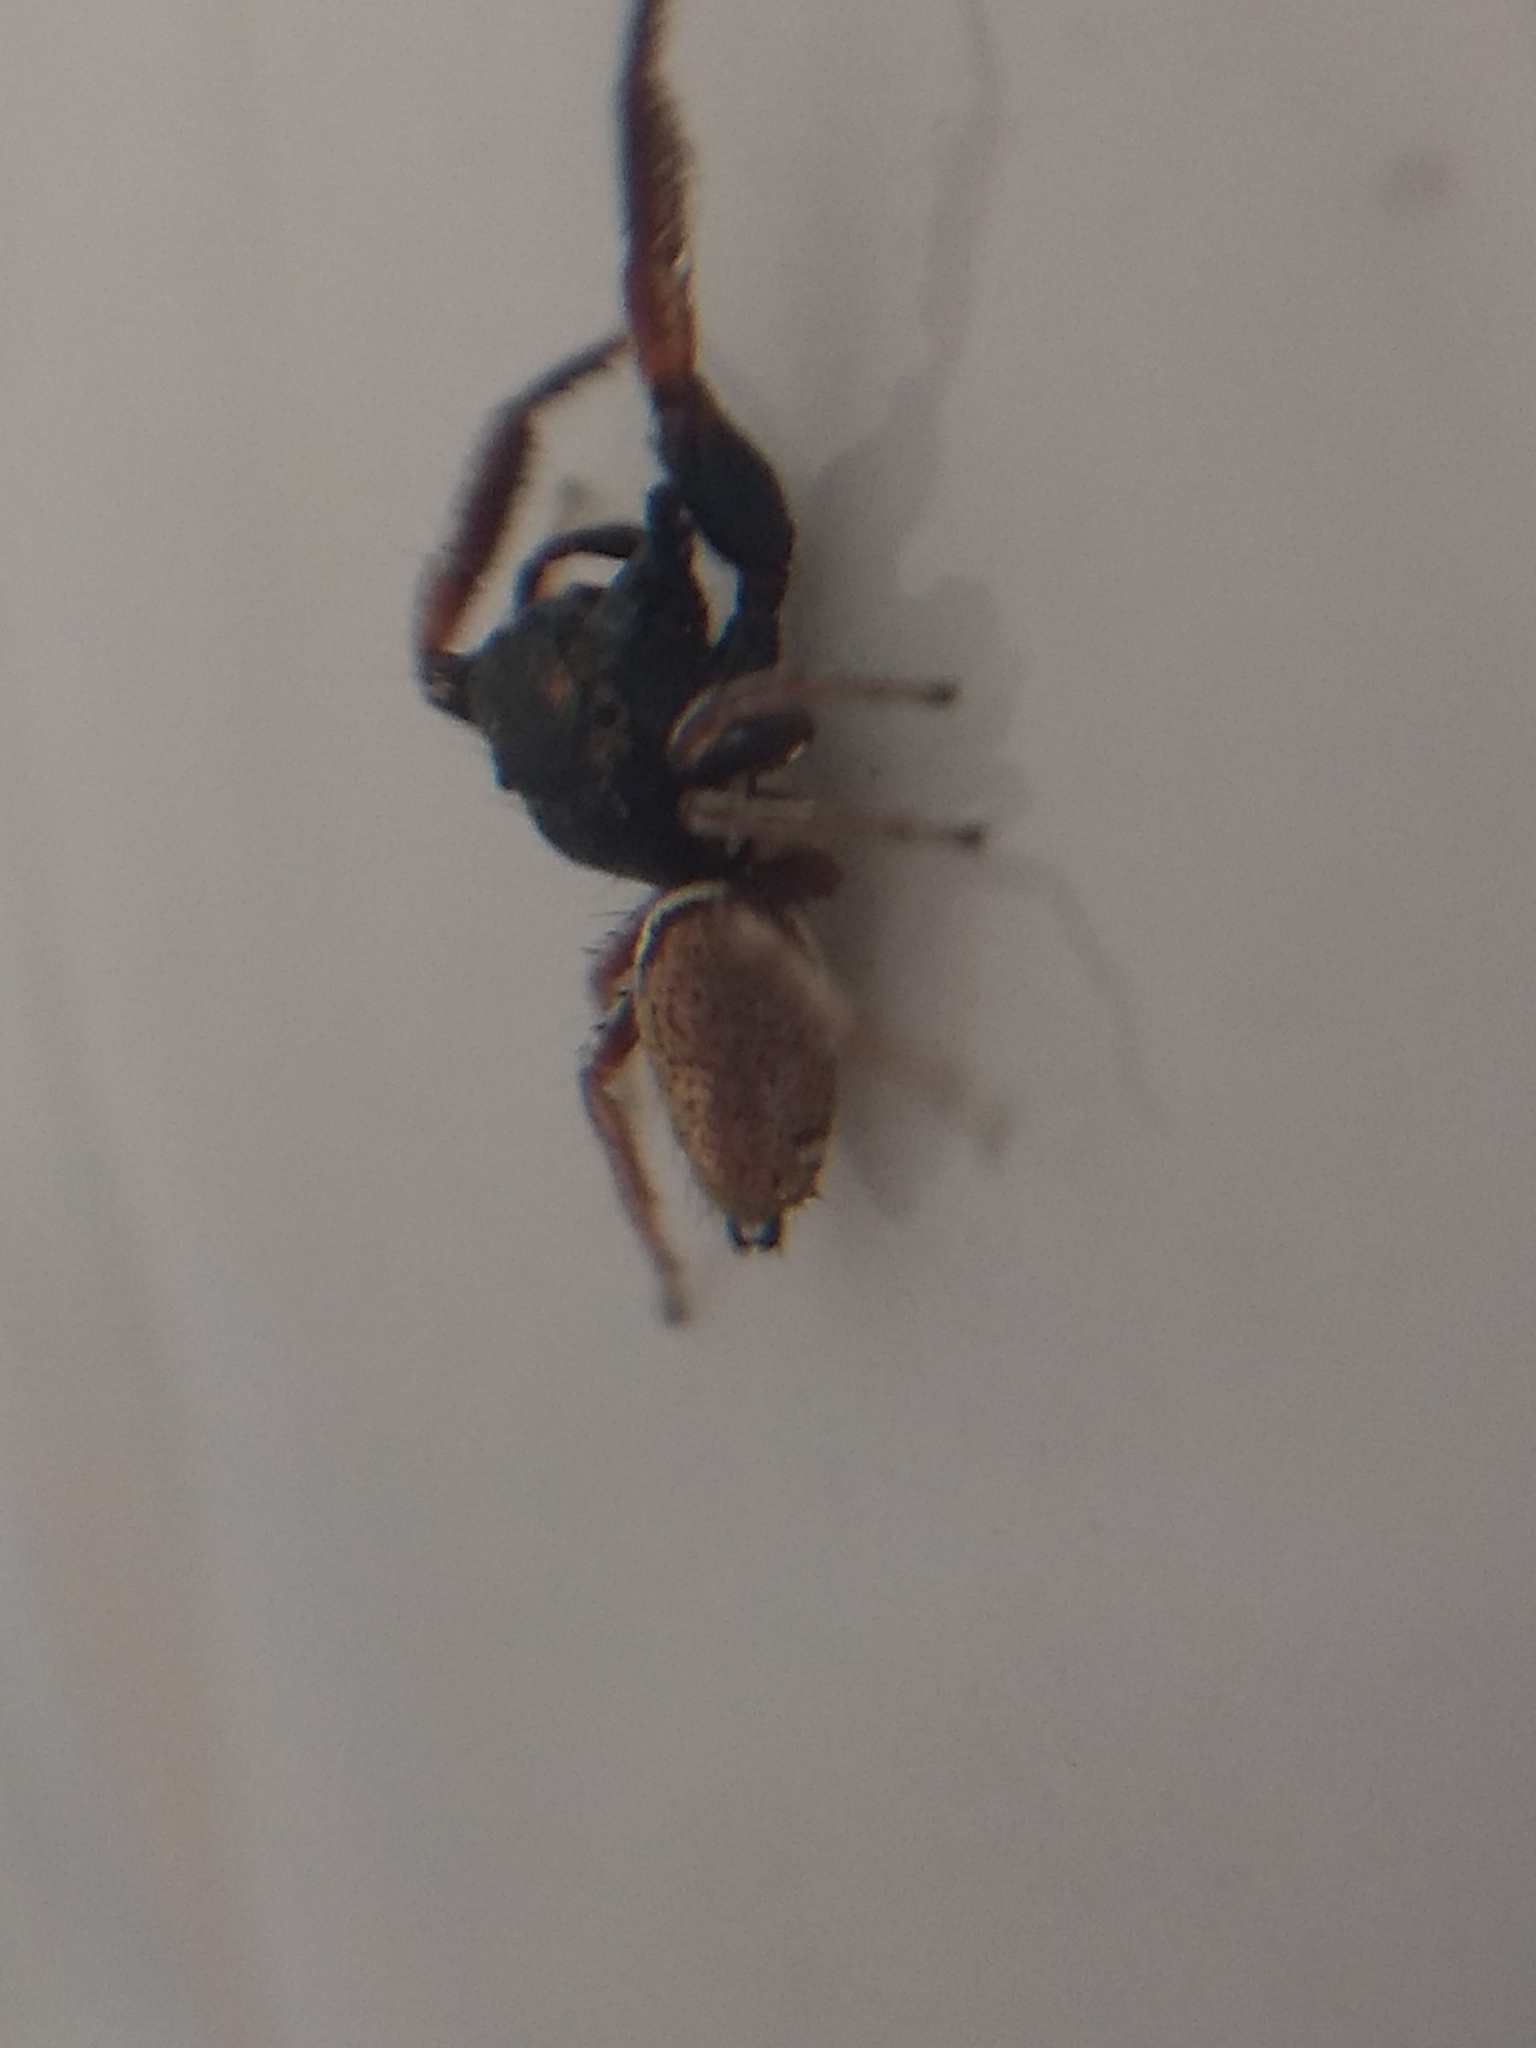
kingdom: Animalia
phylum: Arthropoda
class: Arachnida
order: Araneae
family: Salticidae
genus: Sassacus
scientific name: Sassacus vitis
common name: Jumping spiders
